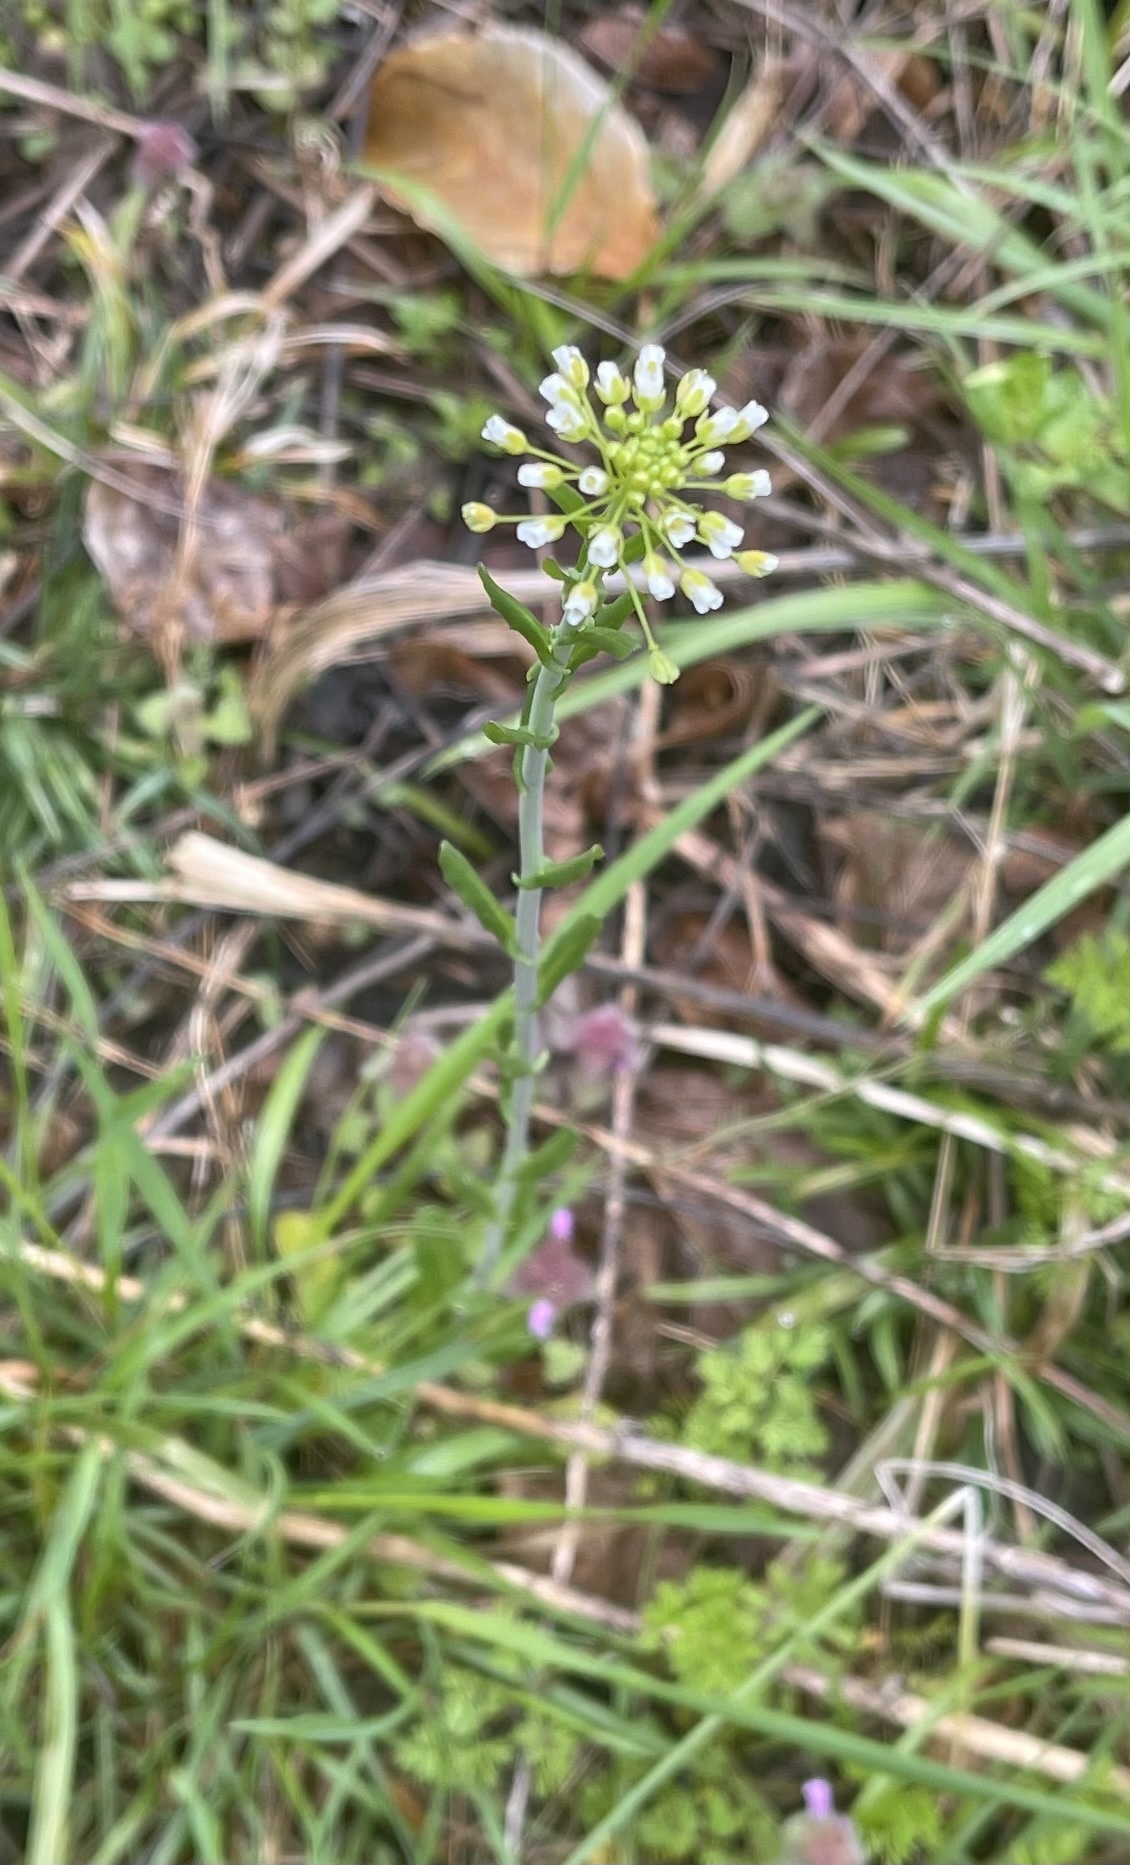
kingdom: Plantae
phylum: Tracheophyta
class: Magnoliopsida
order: Brassicales
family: Brassicaceae
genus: Mummenhoffia
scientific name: Mummenhoffia alliacea
